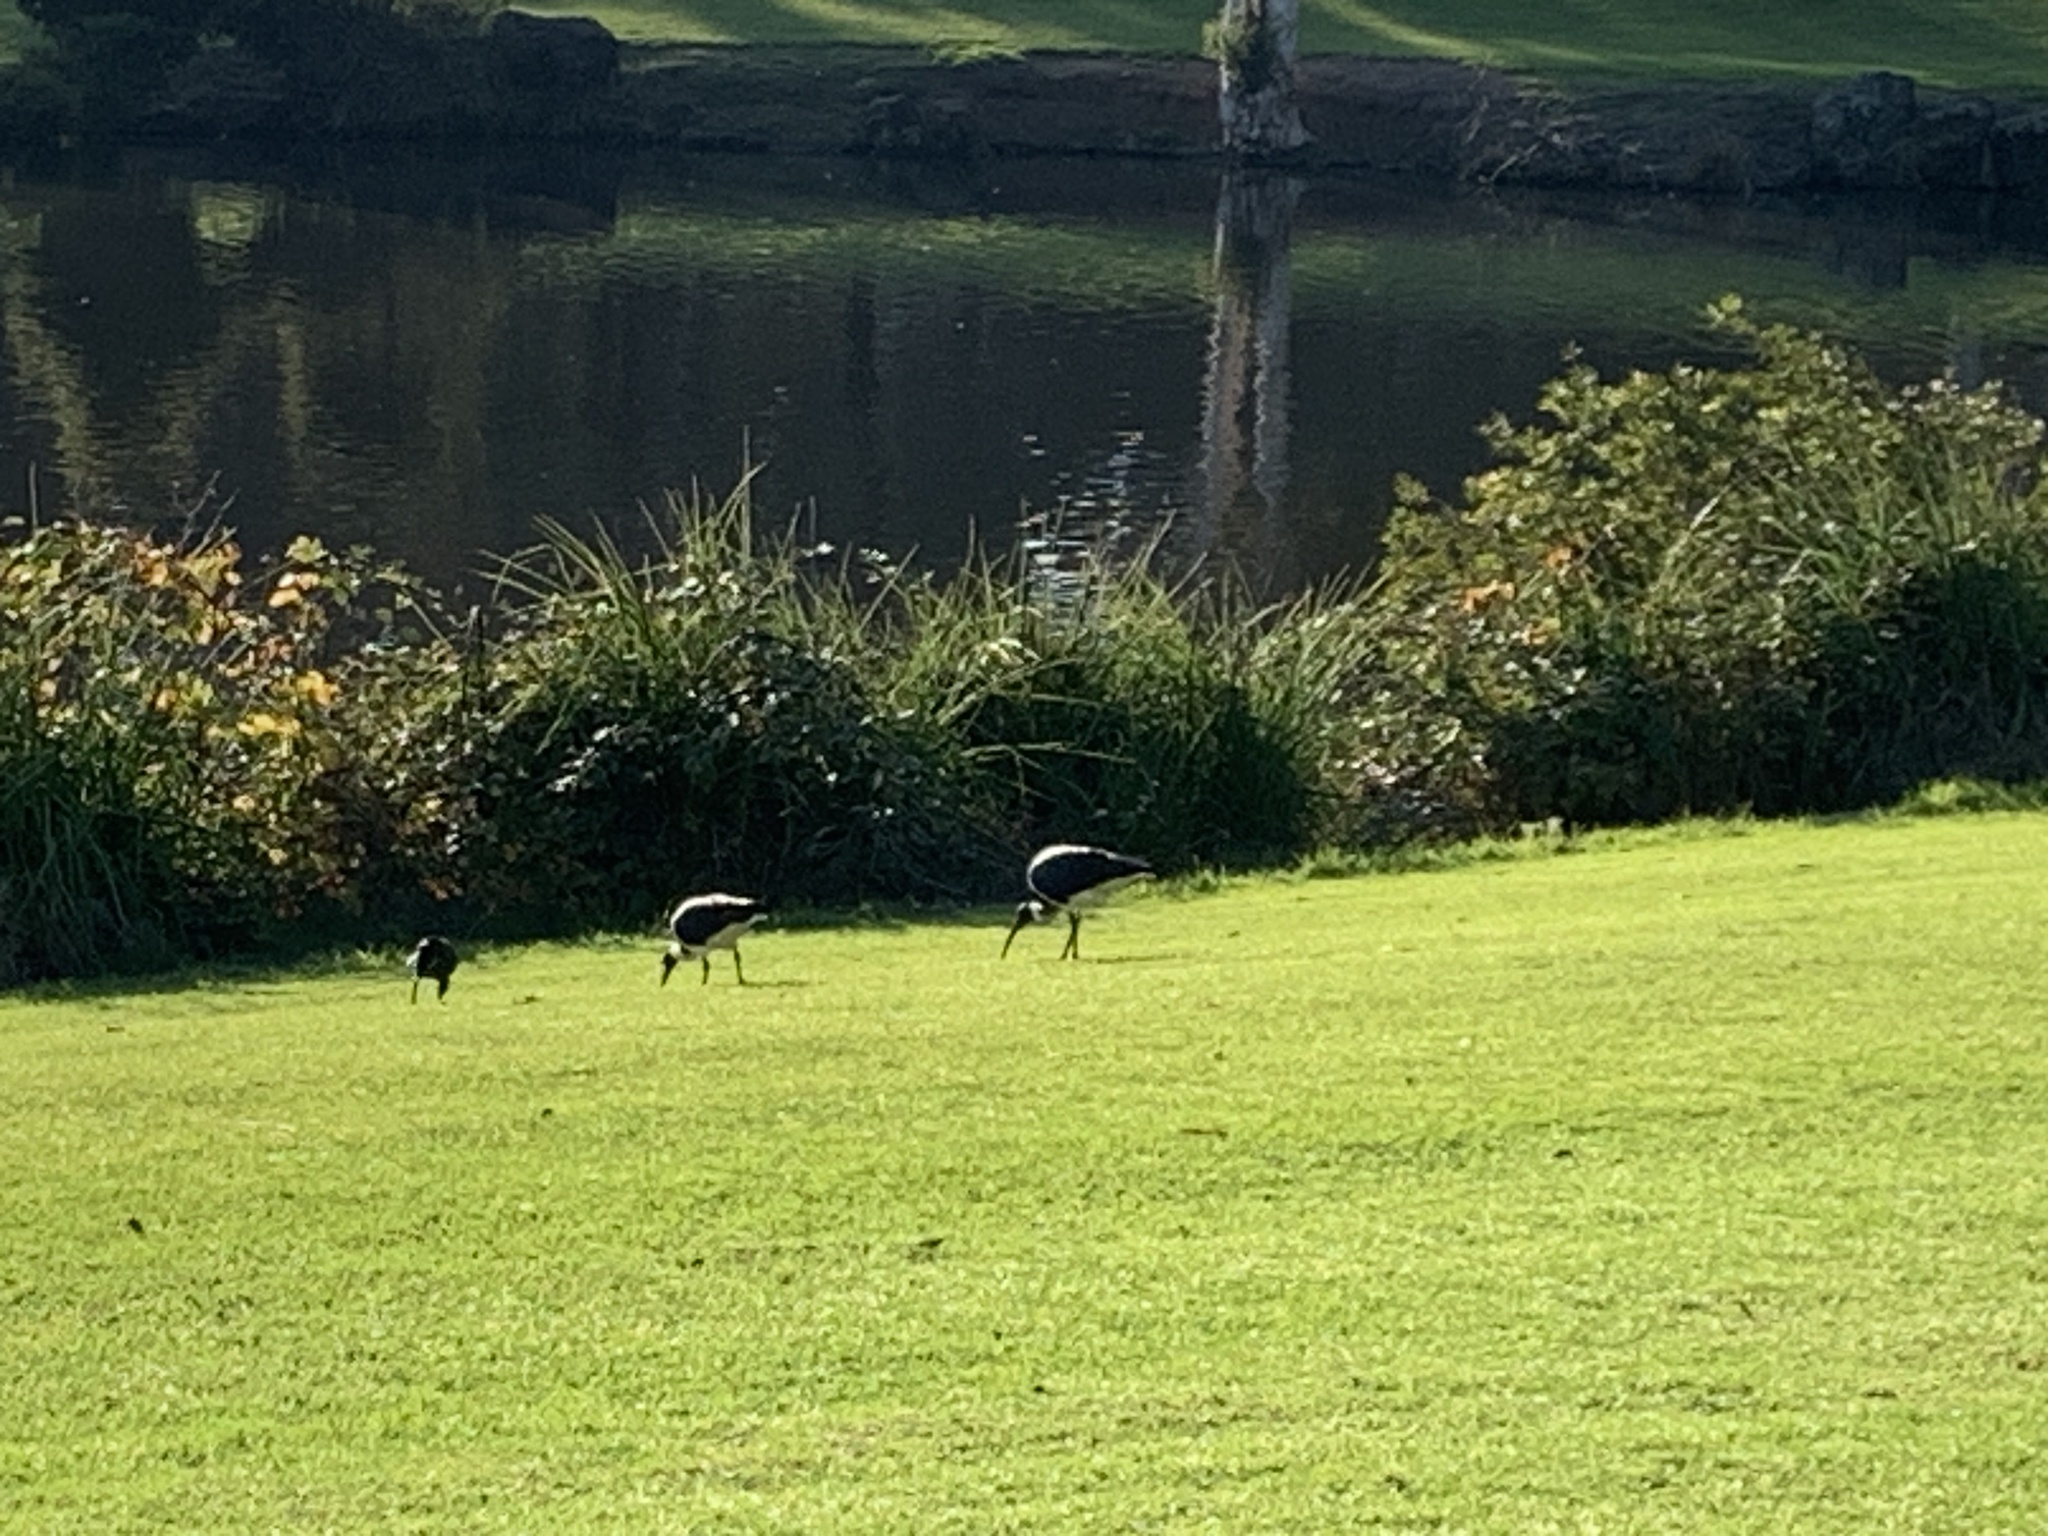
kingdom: Animalia
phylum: Chordata
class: Aves
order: Pelecaniformes
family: Threskiornithidae
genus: Threskiornis
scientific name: Threskiornis spinicollis
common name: Straw-necked ibis
